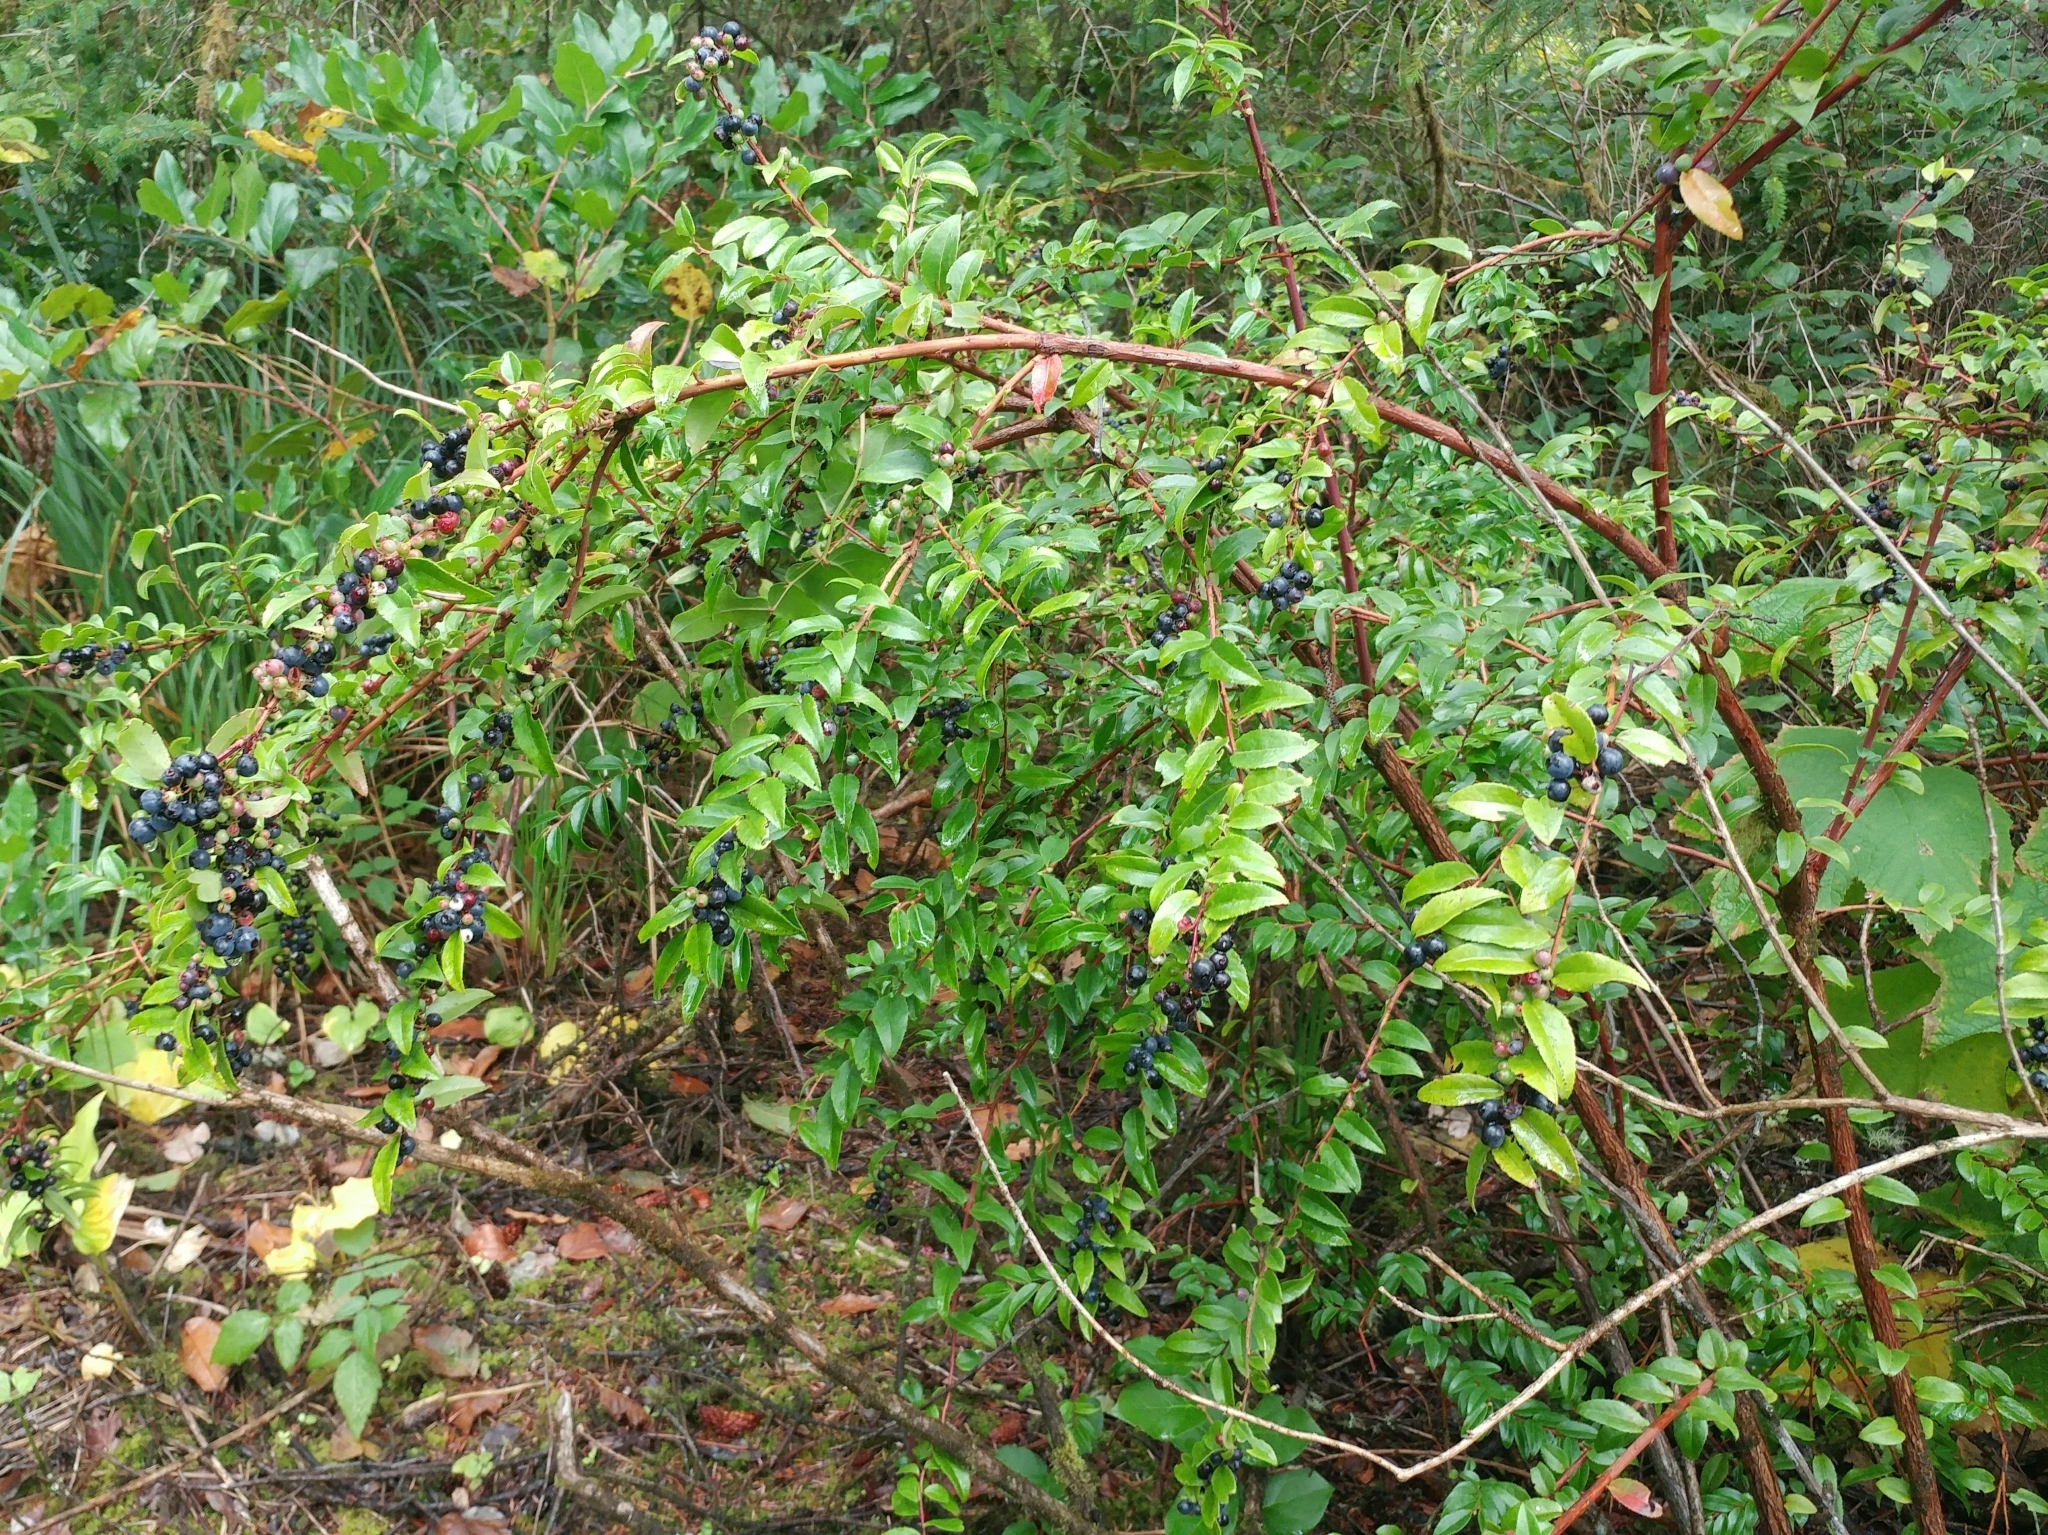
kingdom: Plantae
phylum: Tracheophyta
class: Magnoliopsida
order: Ericales
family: Ericaceae
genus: Vaccinium
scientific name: Vaccinium ovatum
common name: California-huckleberry
